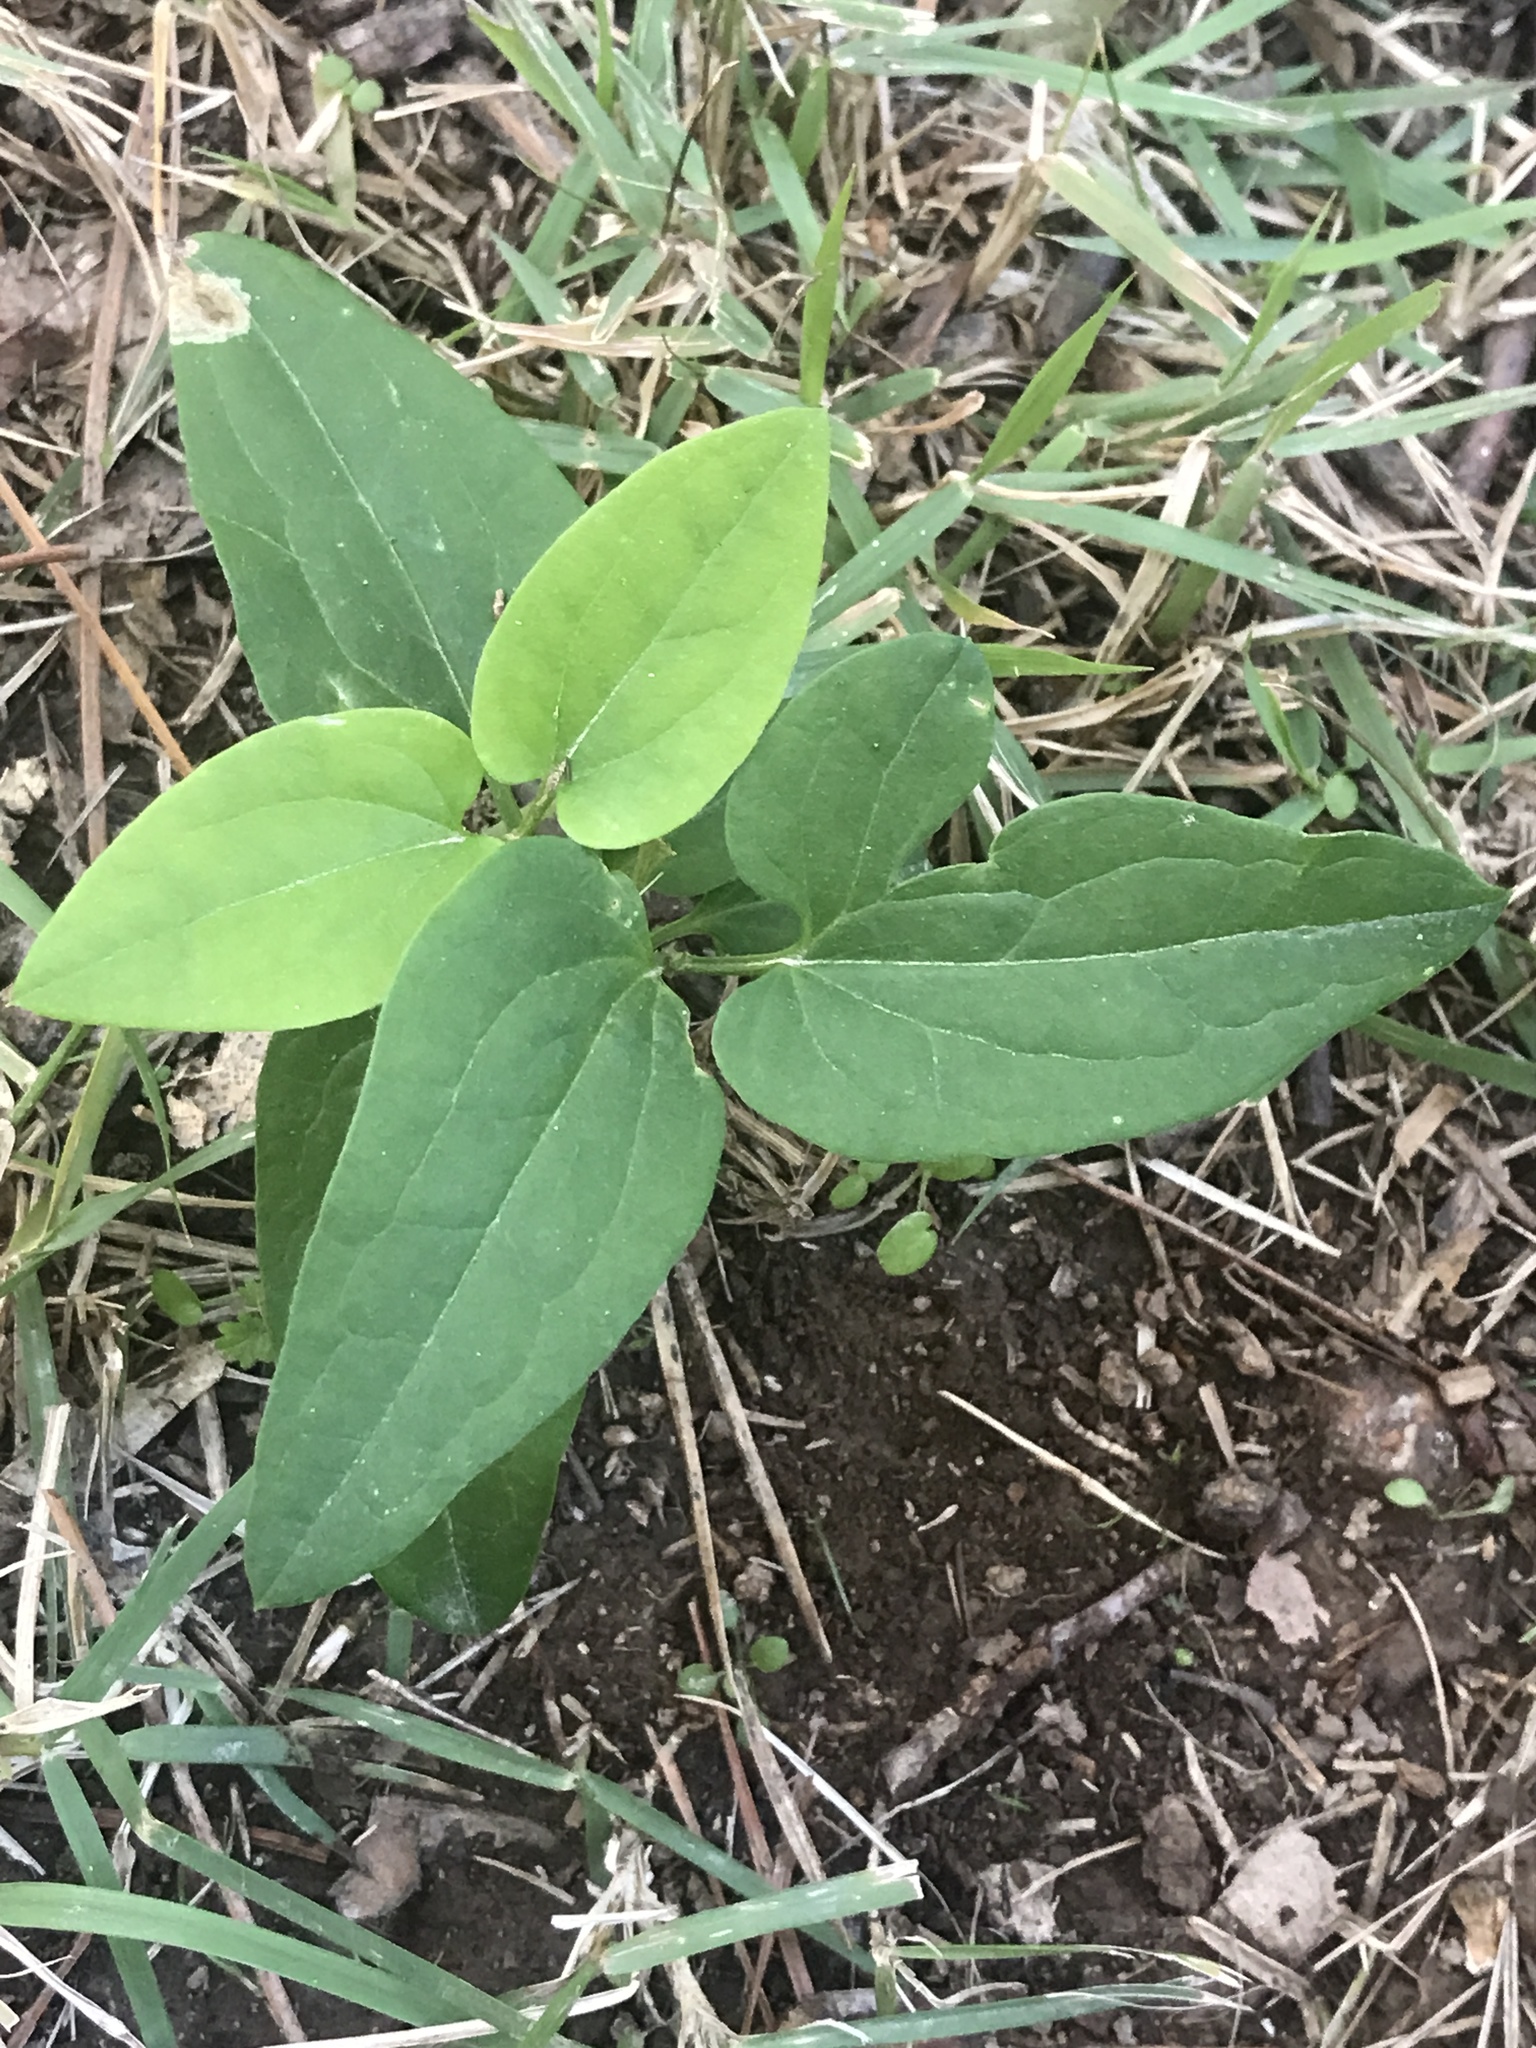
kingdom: Plantae
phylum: Tracheophyta
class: Magnoliopsida
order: Ranunculales
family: Ranunculaceae
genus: Clematis
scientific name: Clematis terniflora
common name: Sweet autumn clematis
